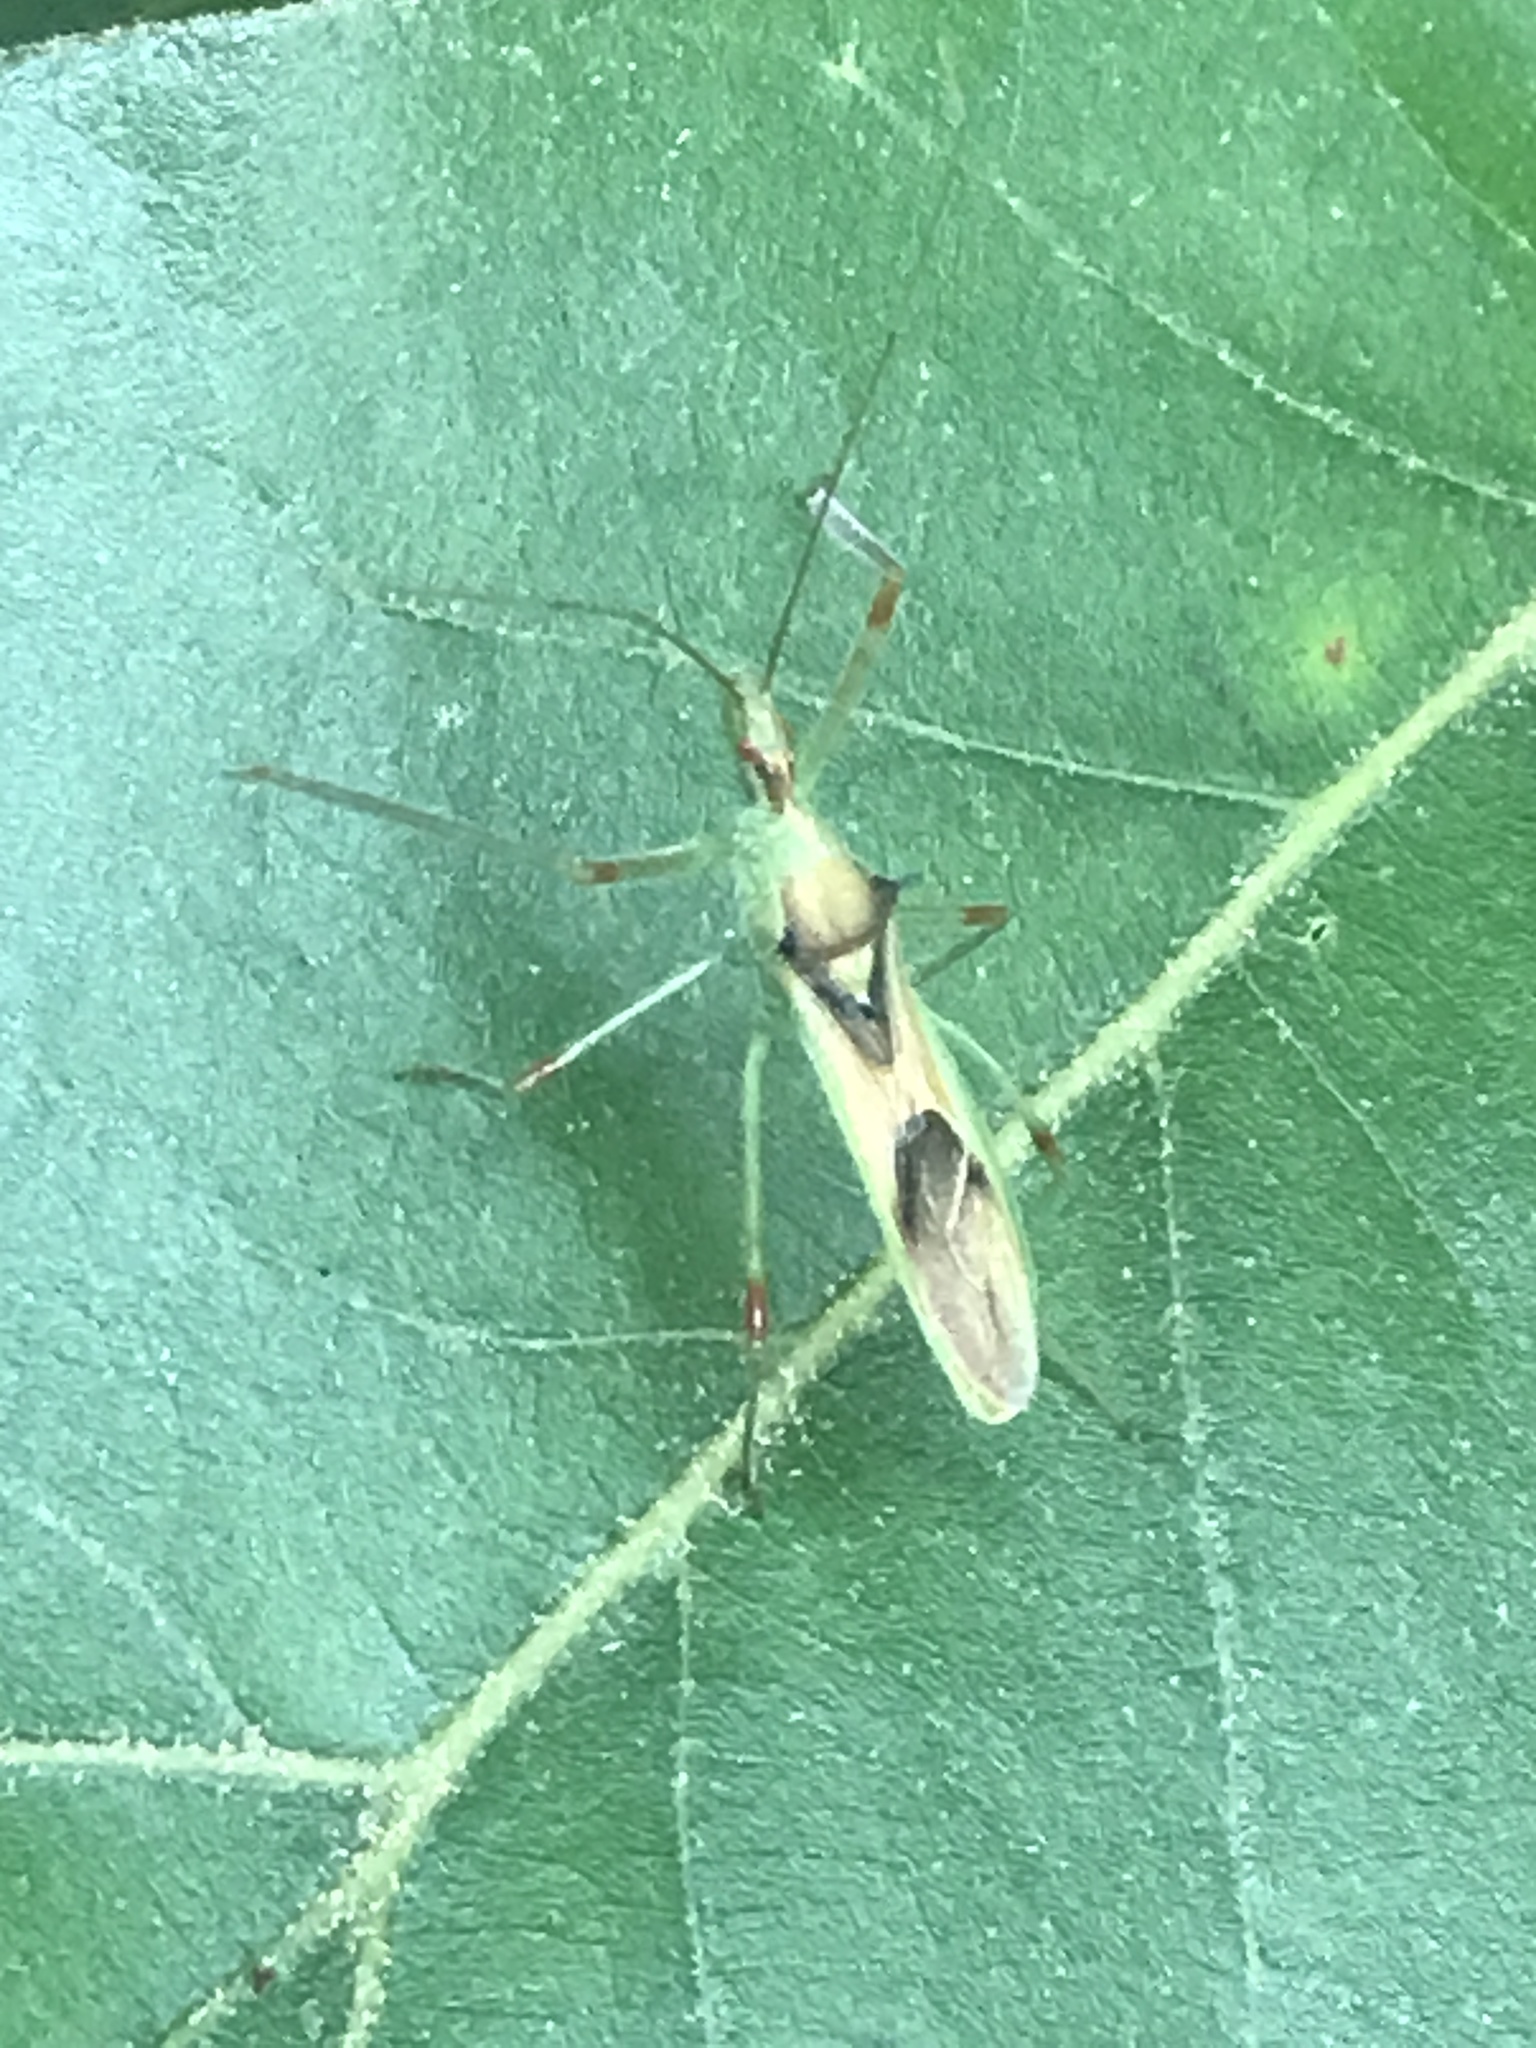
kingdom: Animalia
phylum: Arthropoda
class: Insecta
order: Hemiptera
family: Reduviidae
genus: Zelus
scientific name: Zelus luridus
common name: Pale green assassin bug
